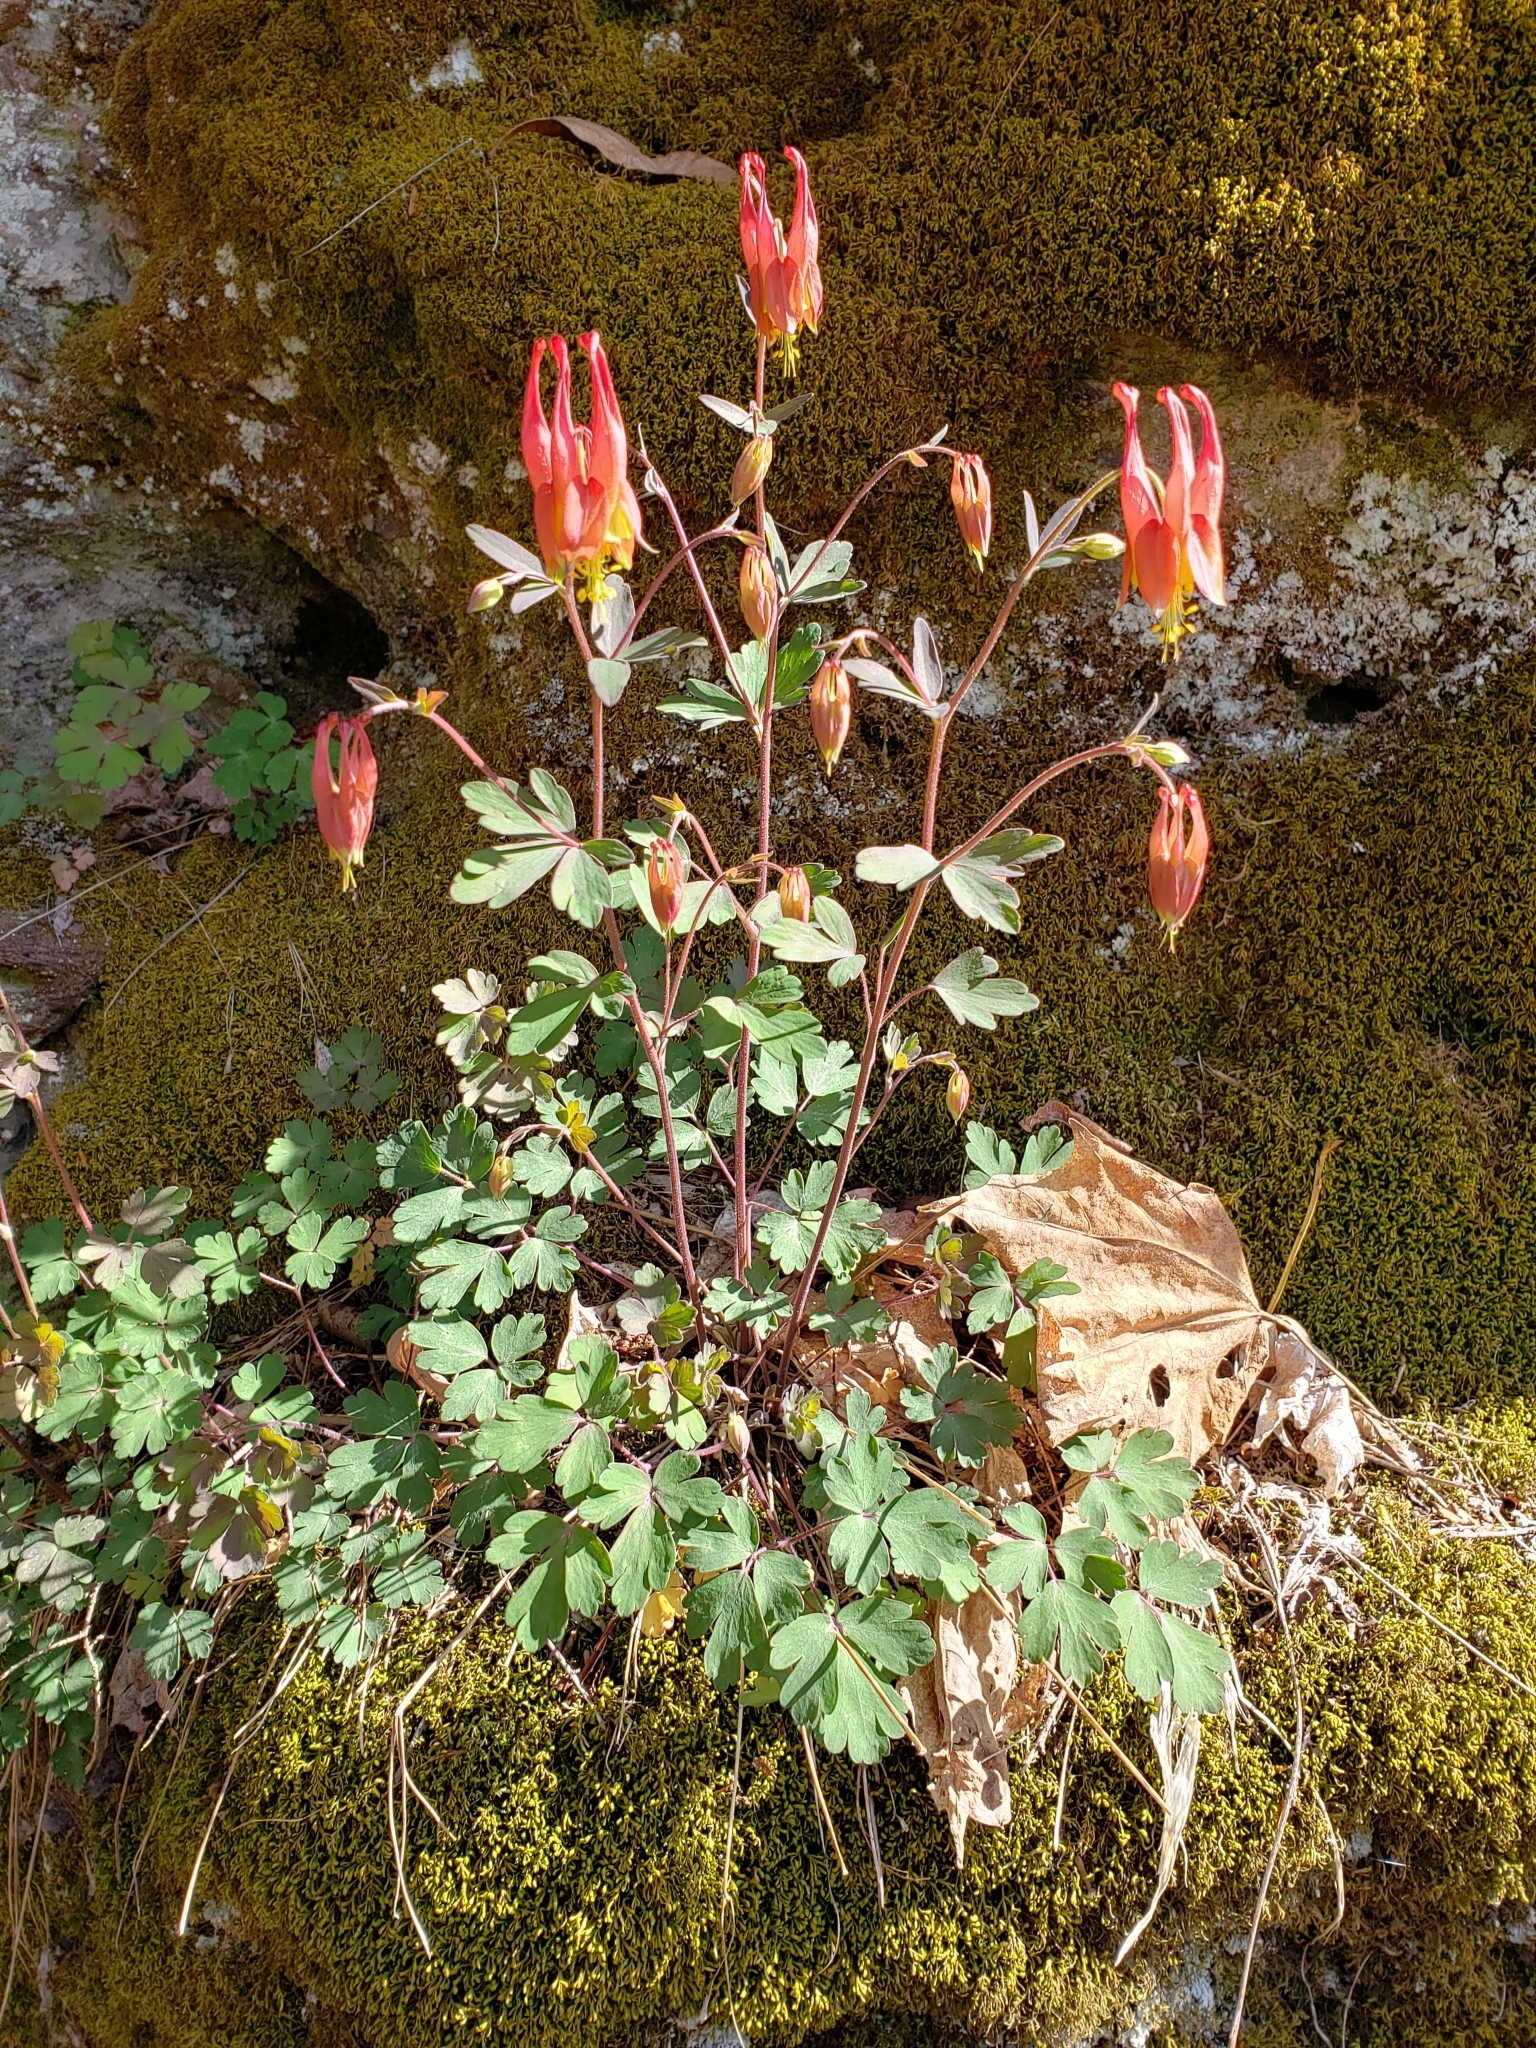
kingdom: Plantae
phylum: Tracheophyta
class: Magnoliopsida
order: Ranunculales
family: Ranunculaceae
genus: Aquilegia
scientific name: Aquilegia canadensis
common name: American columbine
